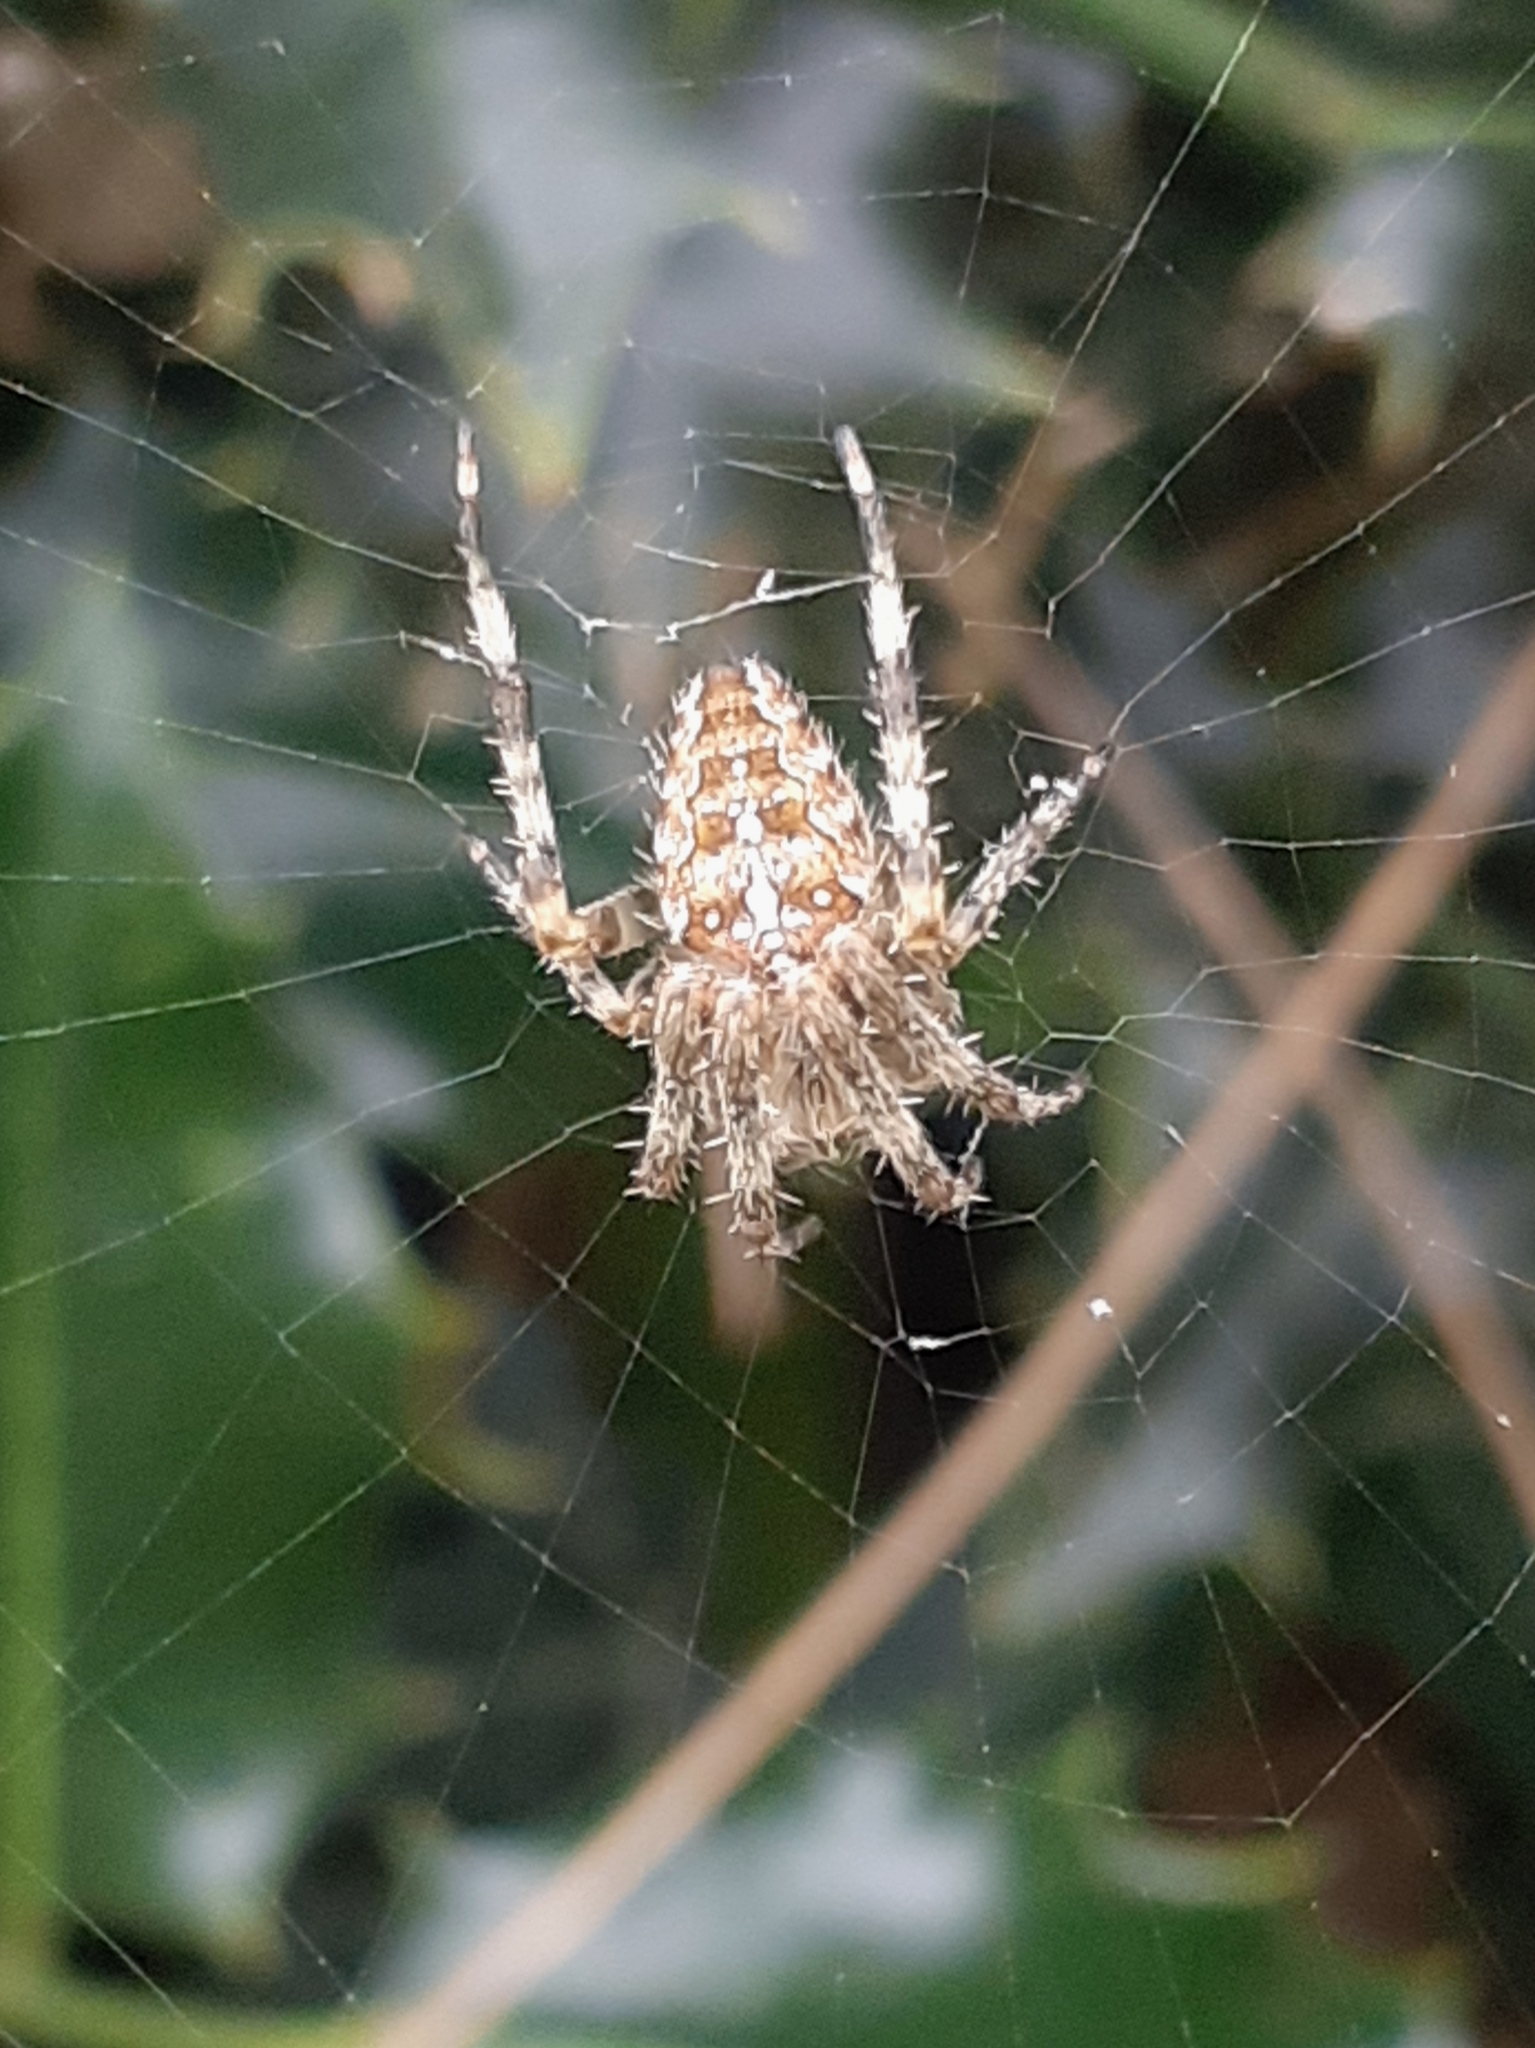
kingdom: Animalia
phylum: Arthropoda
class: Arachnida
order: Araneae
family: Araneidae
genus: Araneus
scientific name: Araneus diadematus
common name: Cross orbweaver
